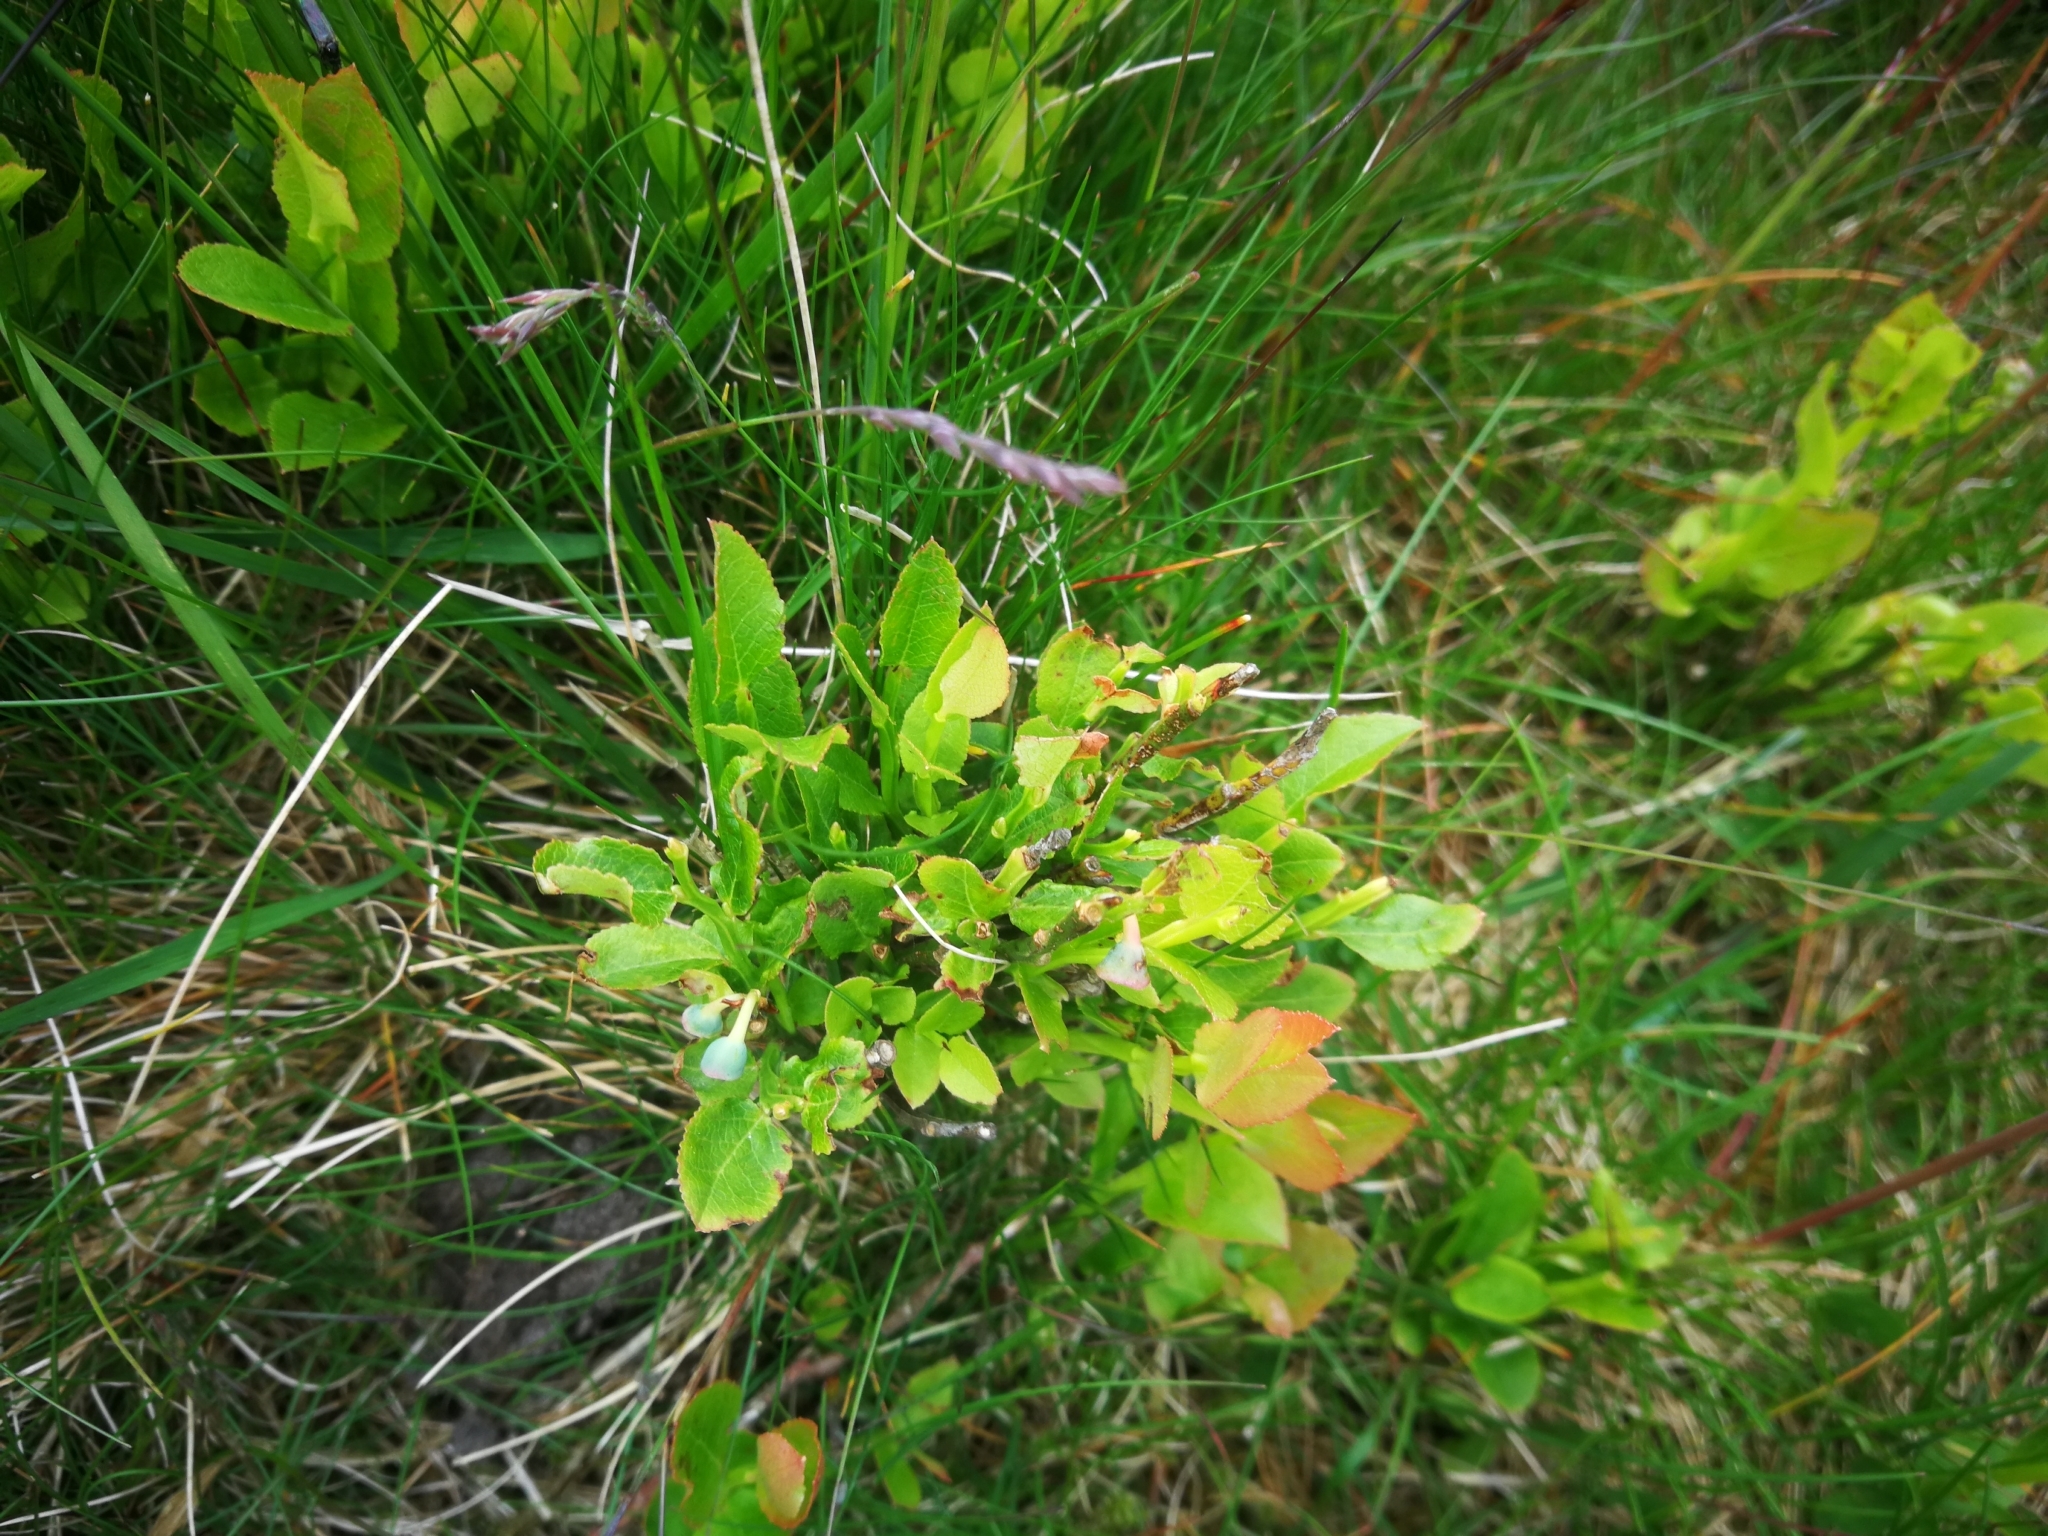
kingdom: Plantae
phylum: Tracheophyta
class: Magnoliopsida
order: Ericales
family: Ericaceae
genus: Vaccinium
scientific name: Vaccinium myrtillus
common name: Bilberry
